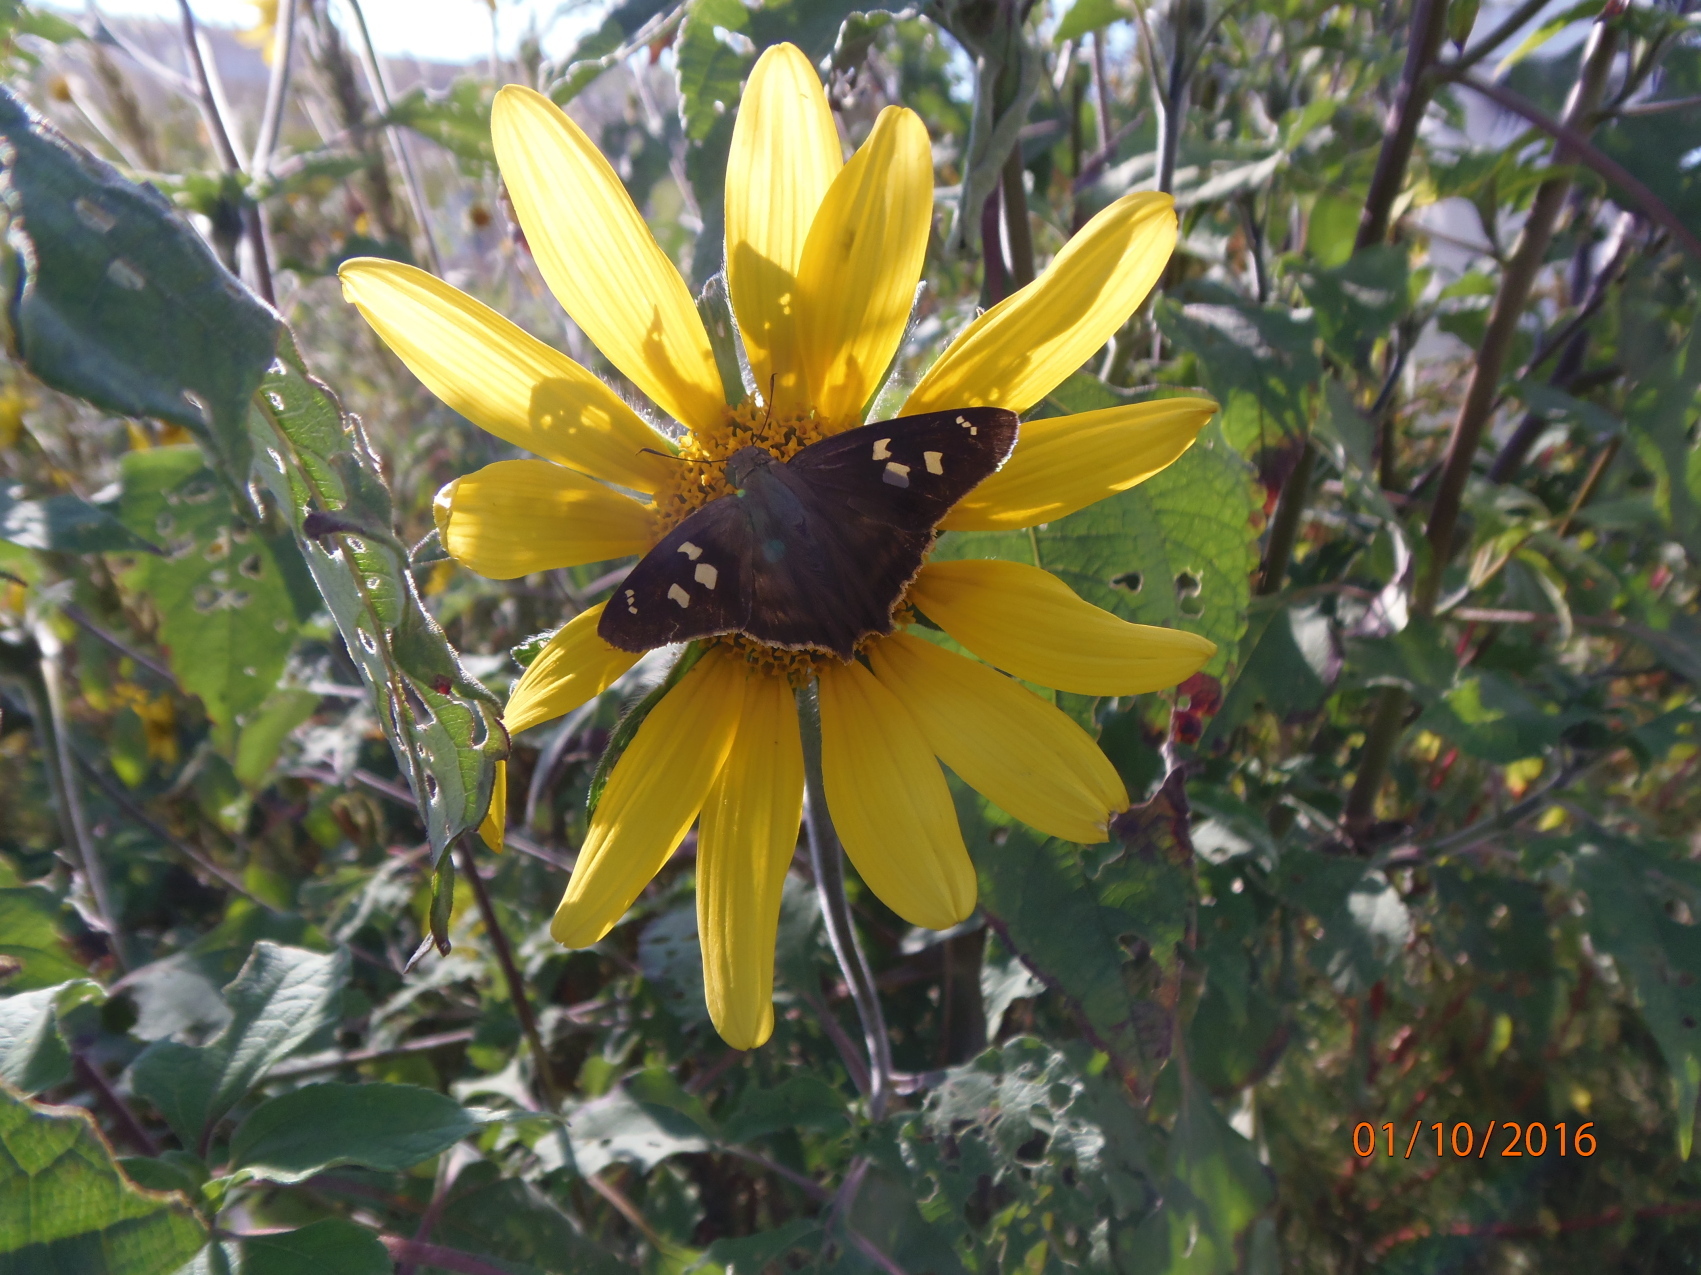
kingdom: Animalia
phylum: Arthropoda
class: Insecta
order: Lepidoptera
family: Hesperiidae
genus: Polygonus
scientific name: Polygonus leo
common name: Hammoch skipper
